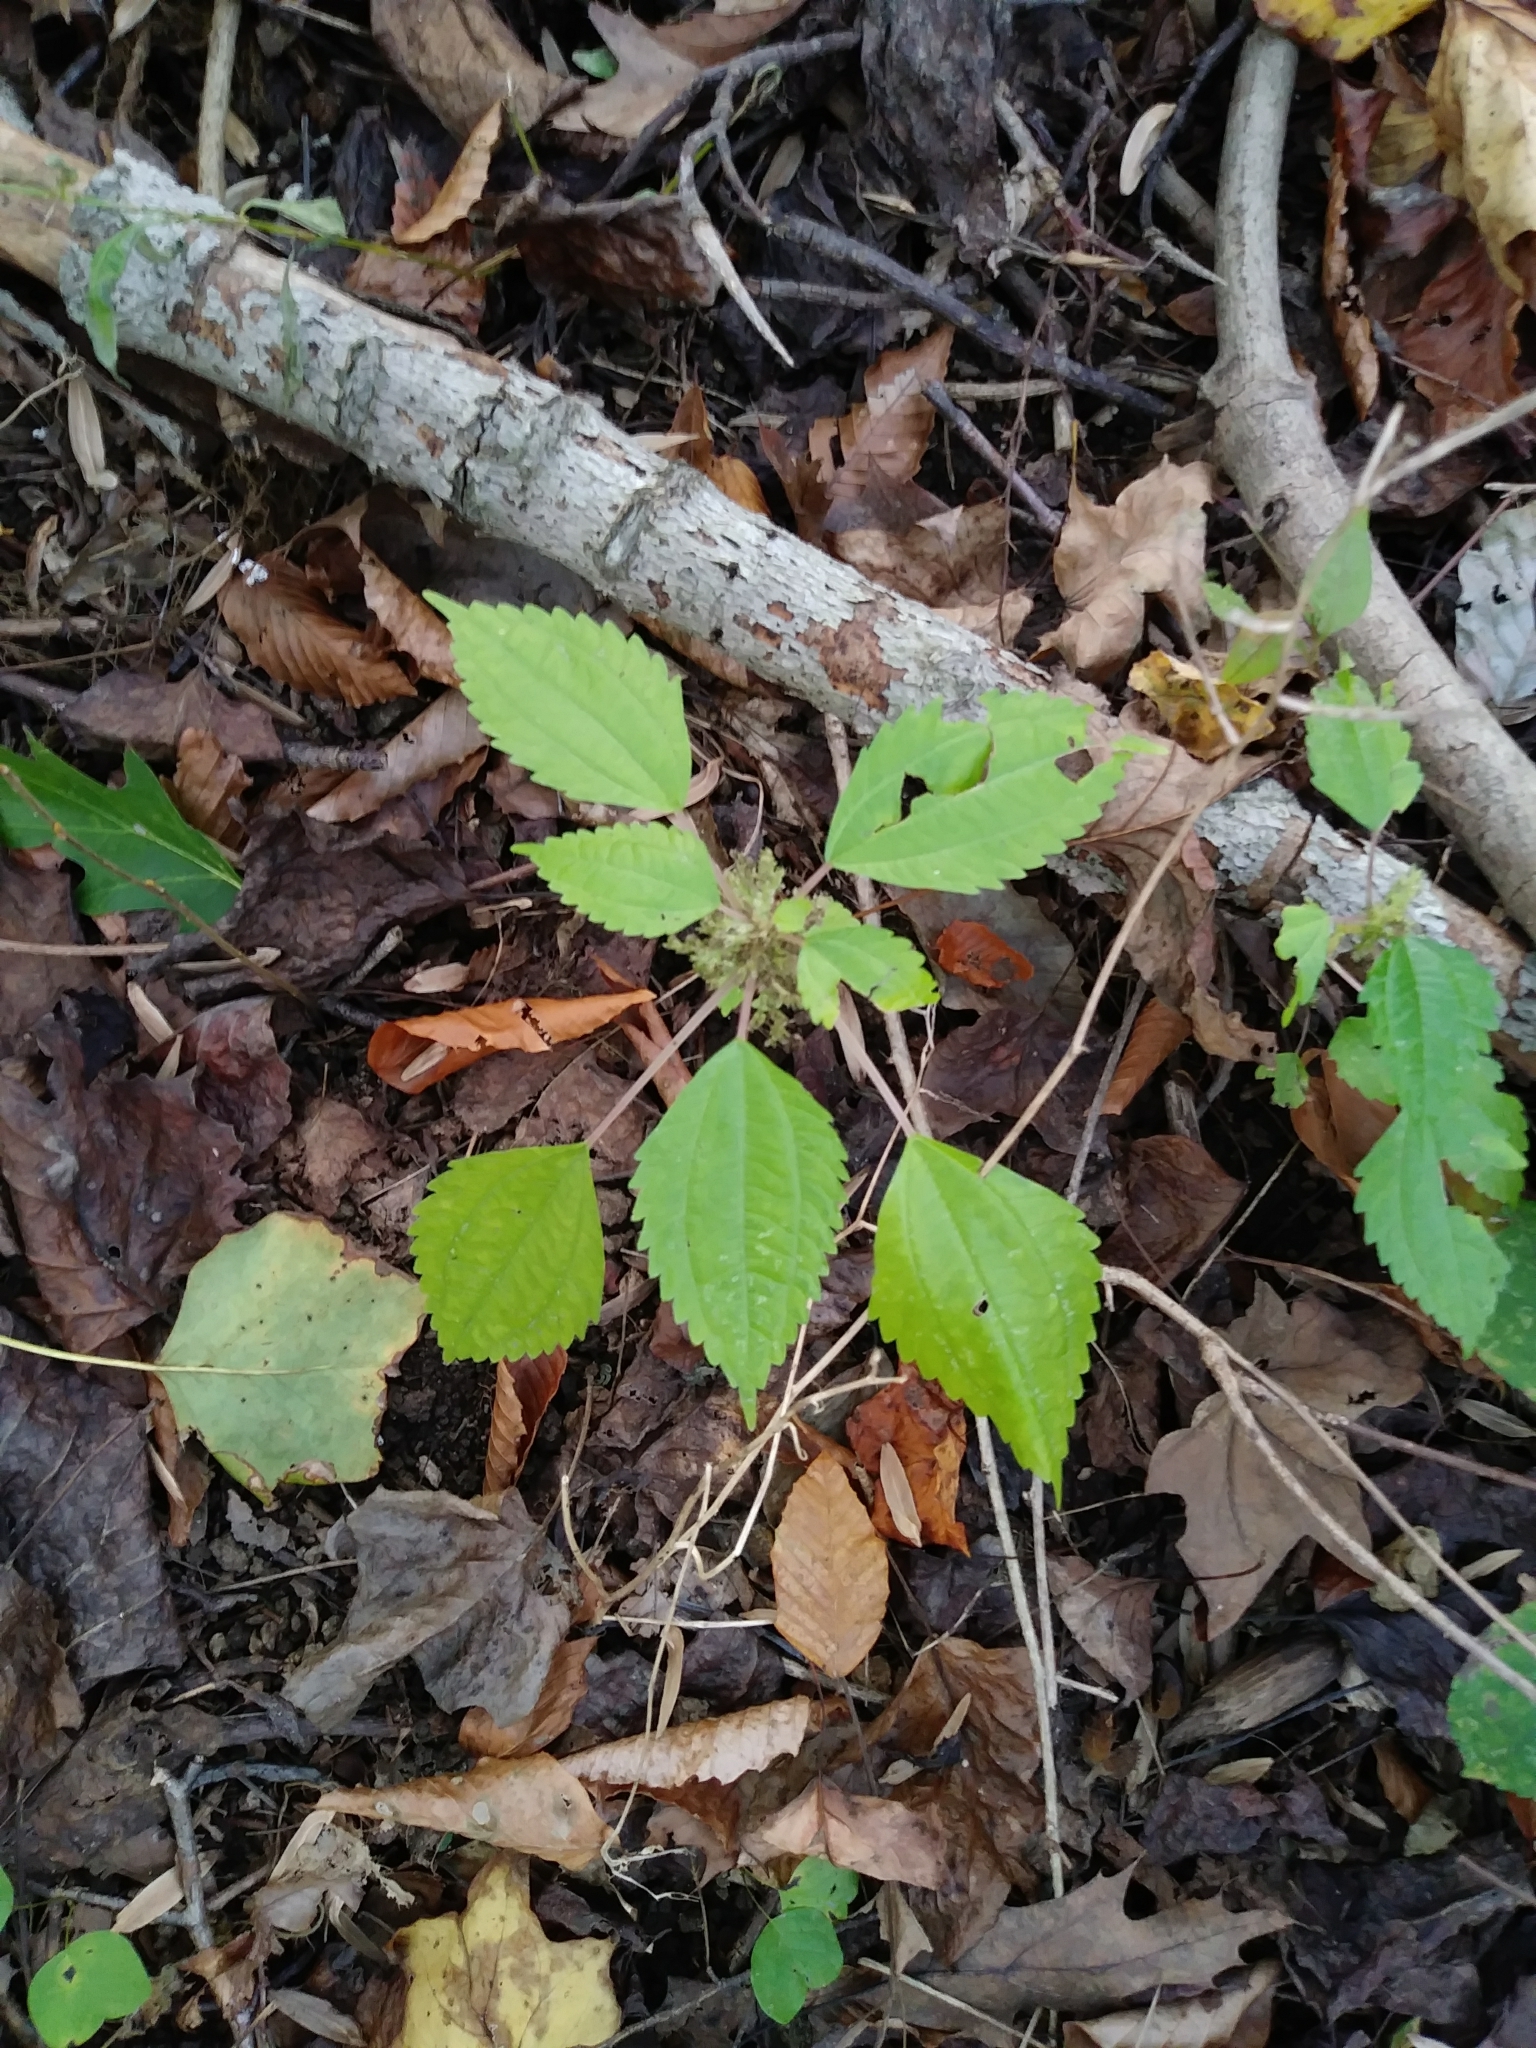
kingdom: Plantae
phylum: Tracheophyta
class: Magnoliopsida
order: Rosales
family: Urticaceae
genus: Pilea
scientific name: Pilea pumila
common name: Clearweed
